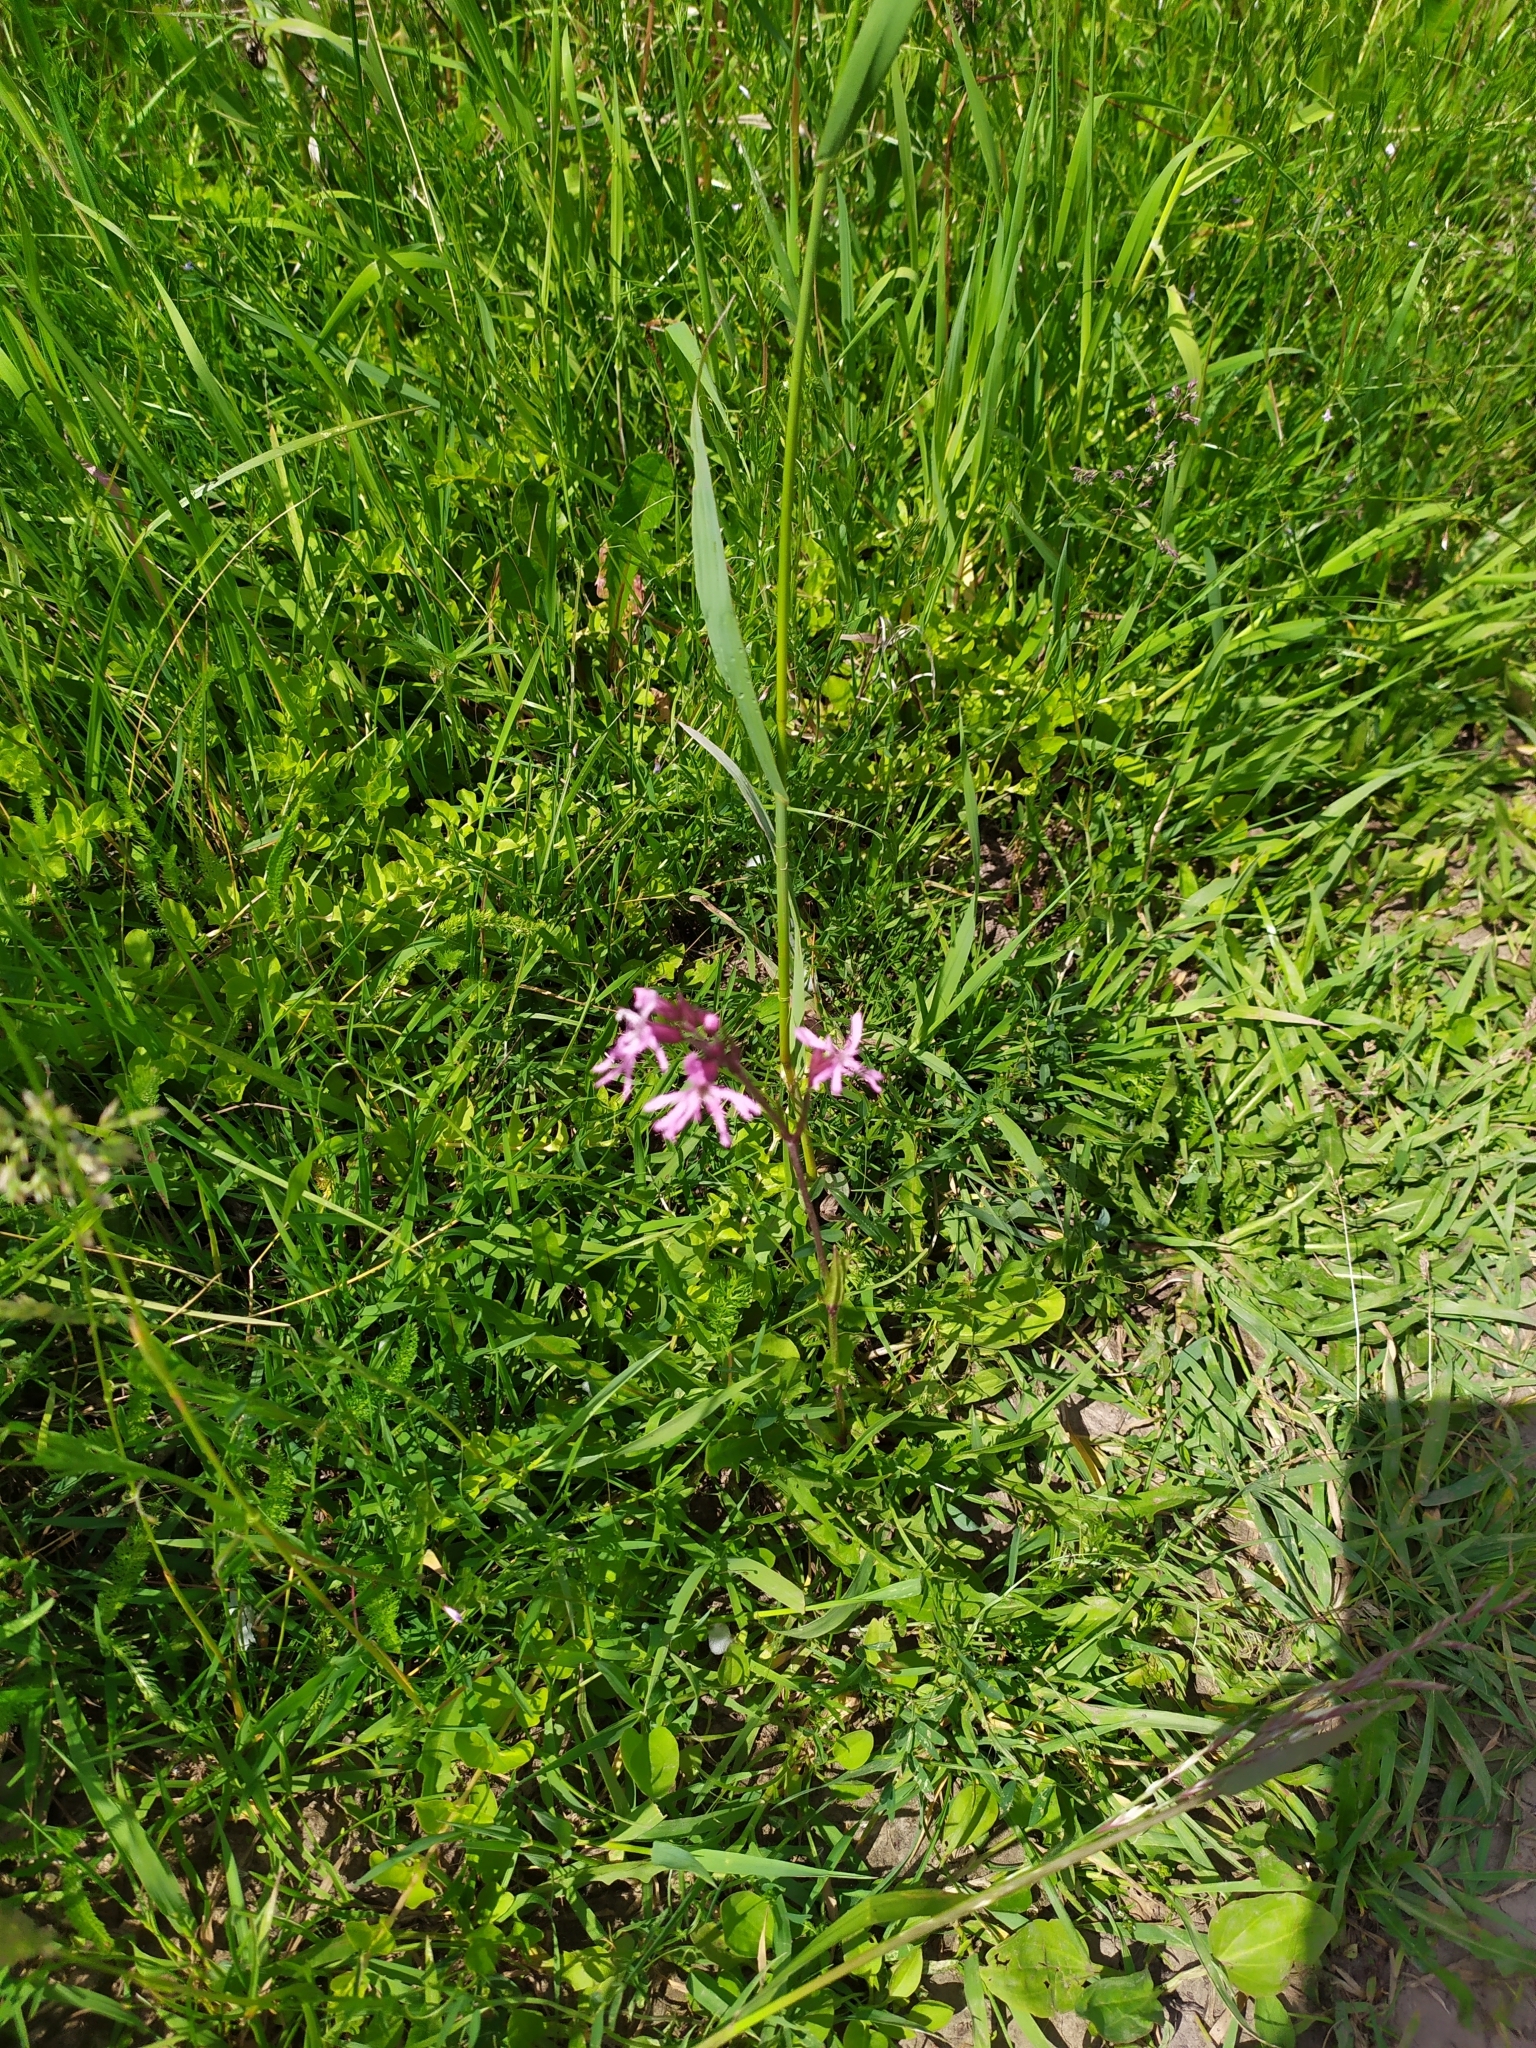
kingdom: Plantae
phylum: Tracheophyta
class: Magnoliopsida
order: Caryophyllales
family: Caryophyllaceae
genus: Silene
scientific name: Silene flos-cuculi
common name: Ragged-robin
